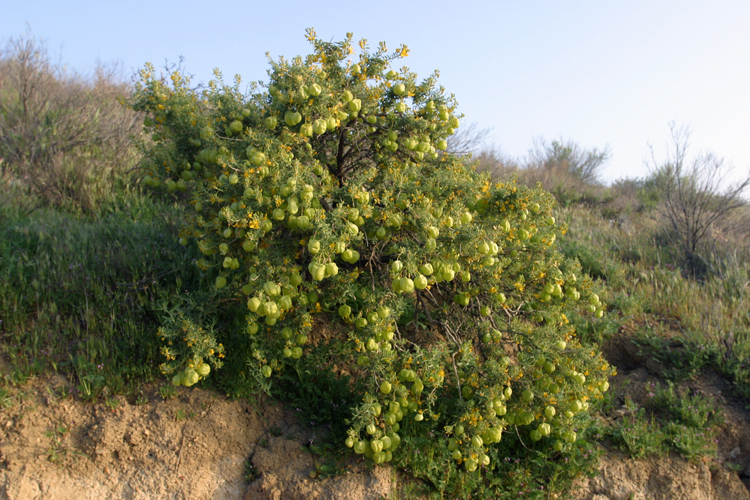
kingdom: Plantae
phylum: Tracheophyta
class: Magnoliopsida
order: Brassicales
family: Cleomaceae
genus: Cleomella
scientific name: Cleomella arborea
